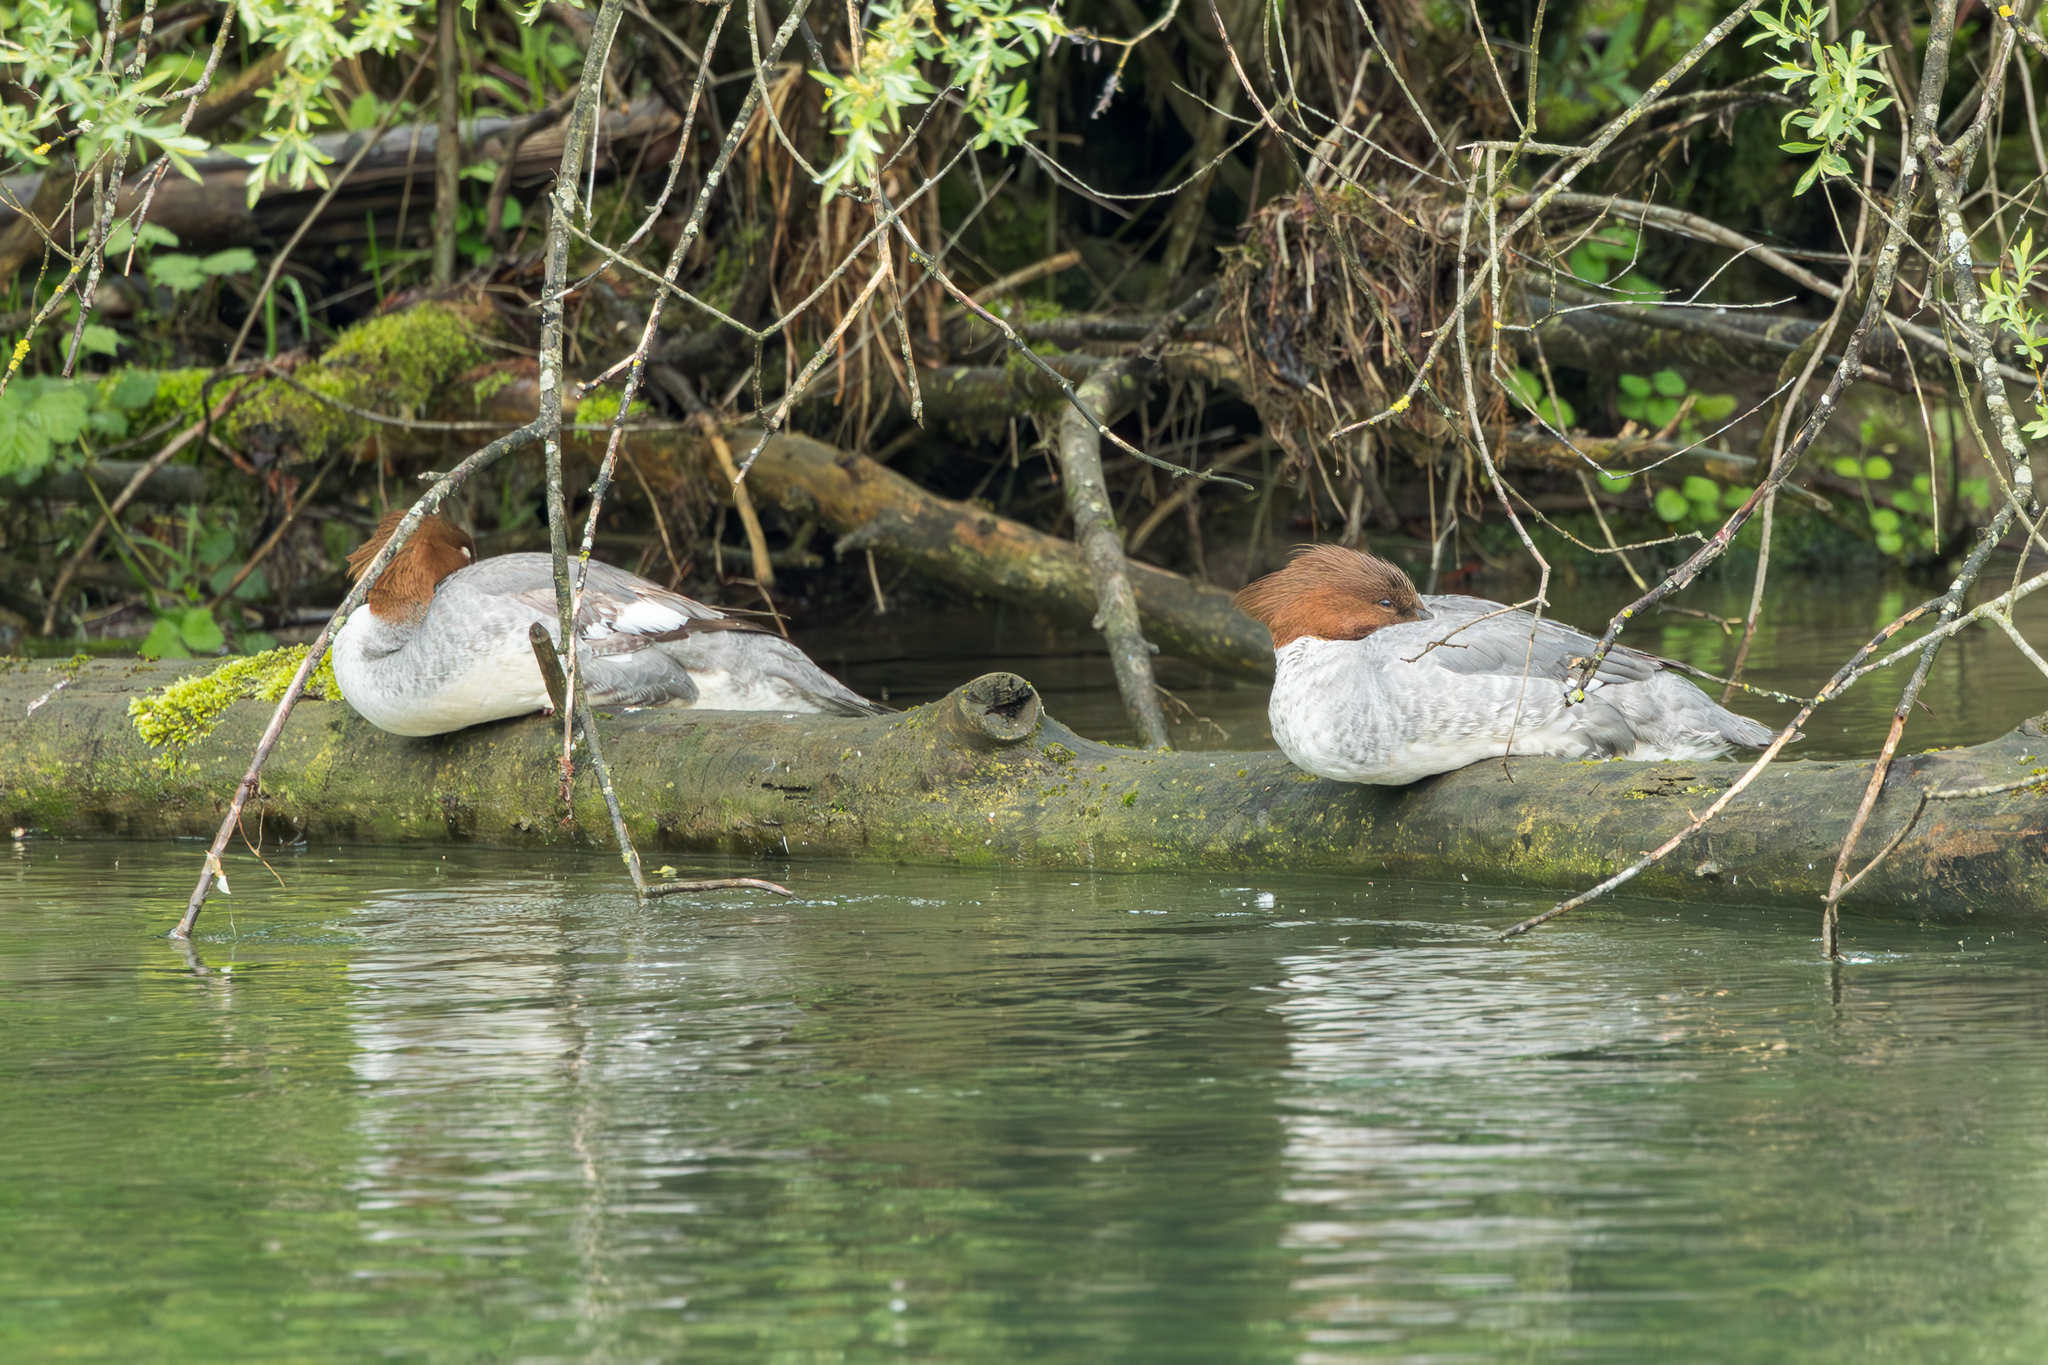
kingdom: Animalia
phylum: Chordata
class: Aves
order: Anseriformes
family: Anatidae
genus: Mergus
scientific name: Mergus merganser
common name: Common merganser
